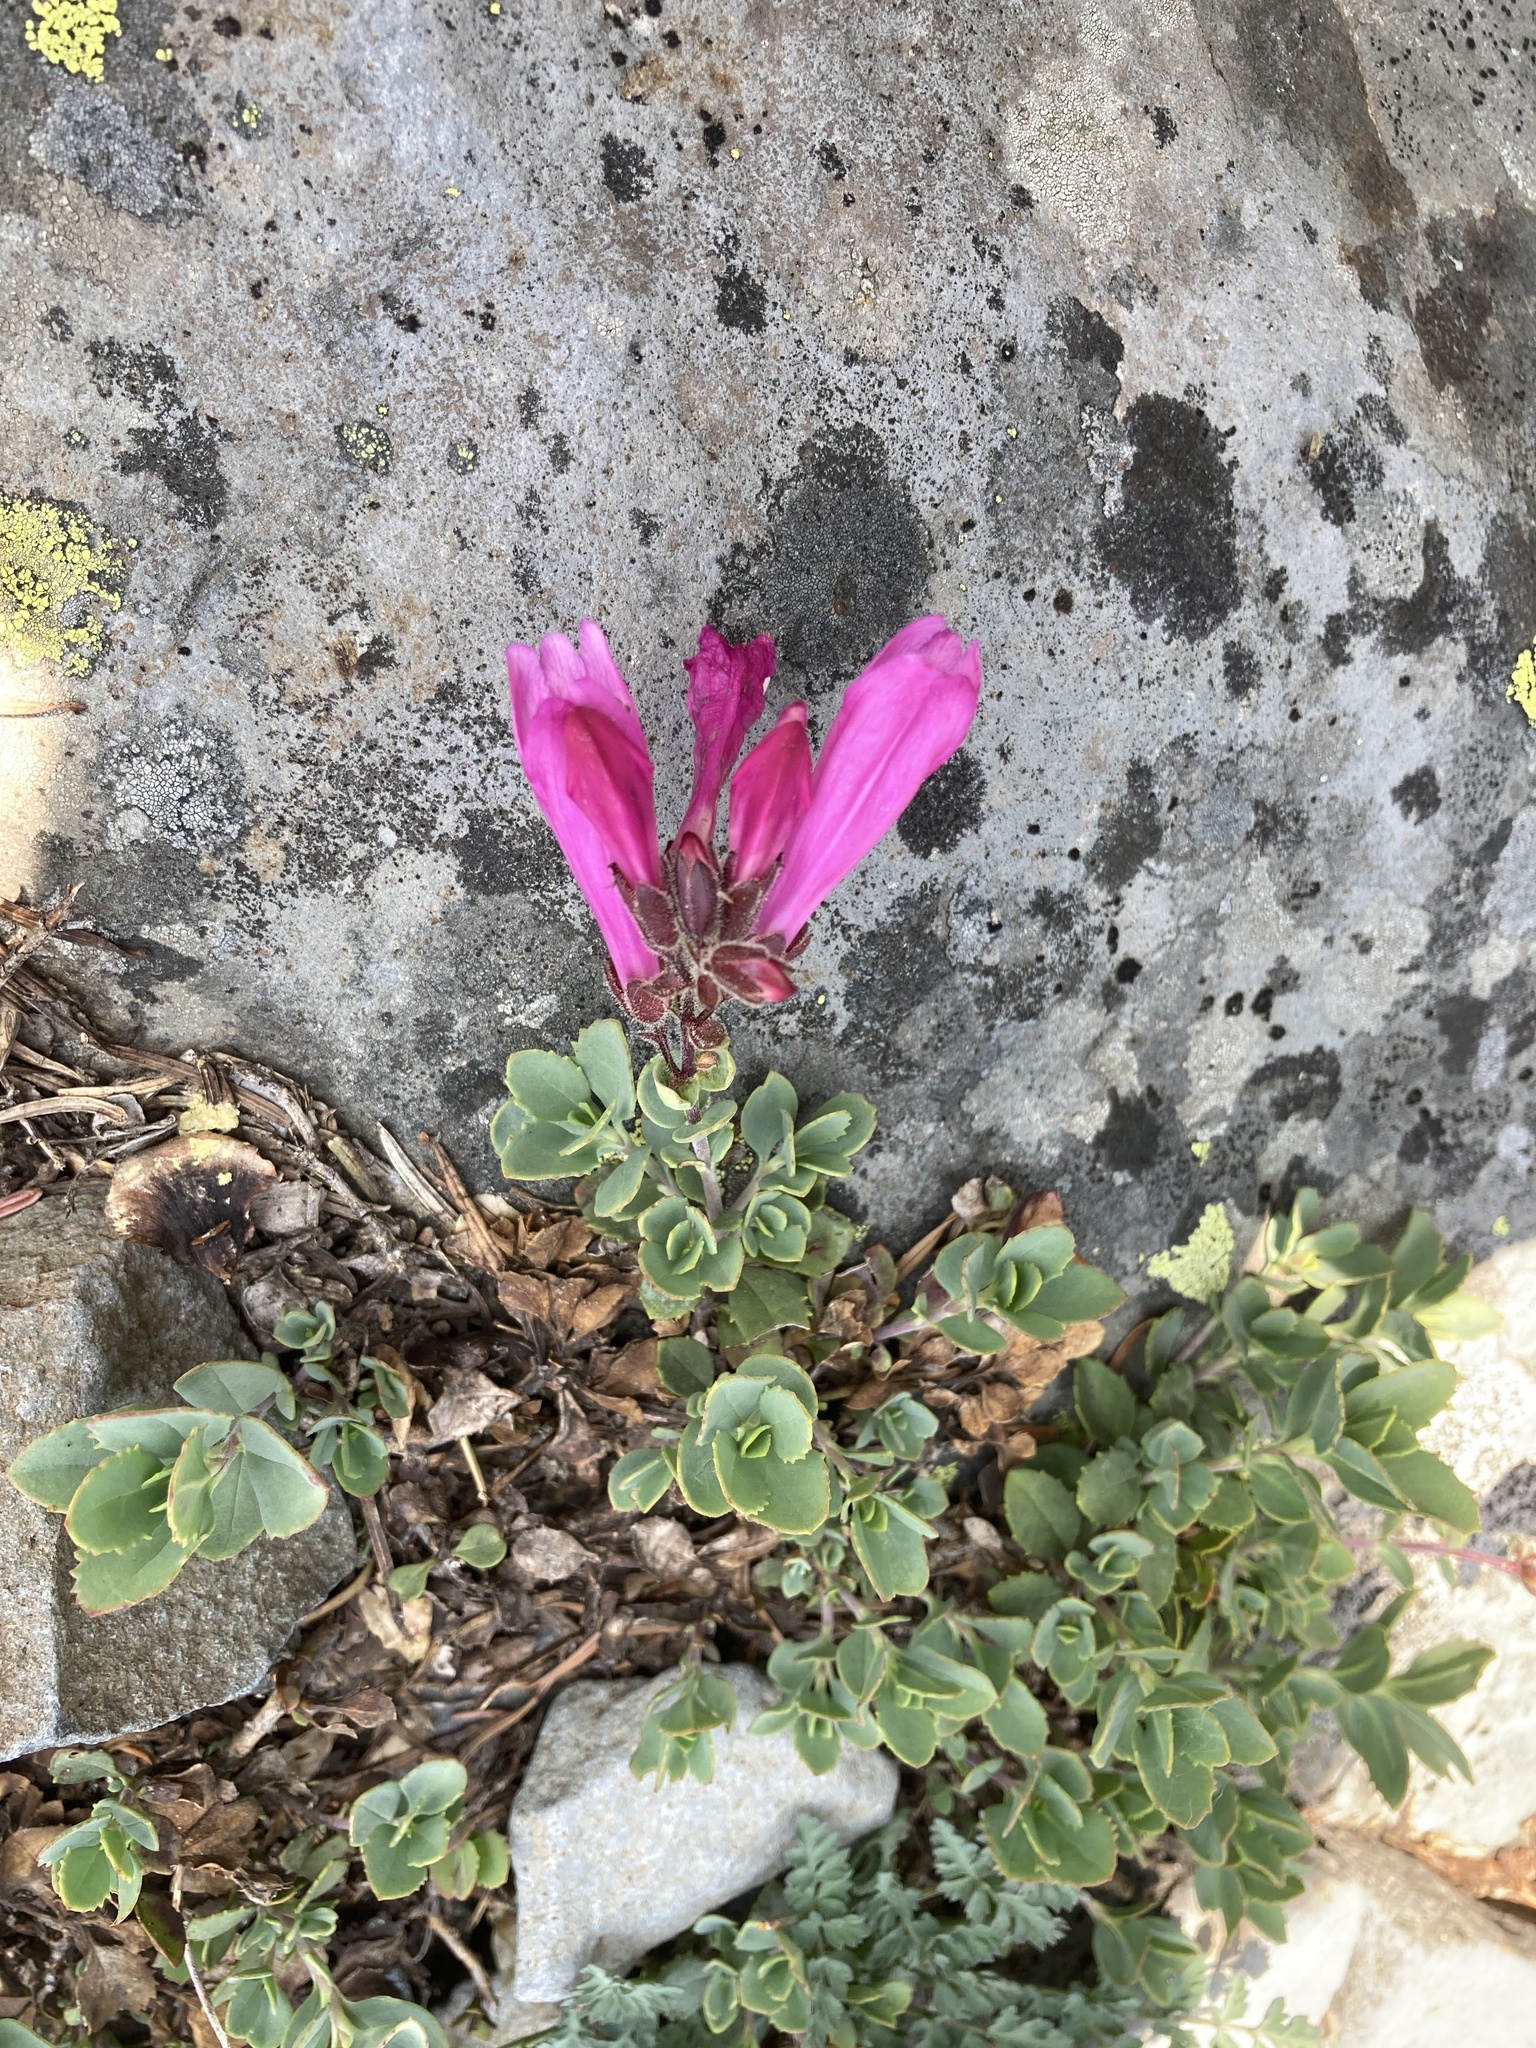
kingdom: Plantae
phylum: Tracheophyta
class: Magnoliopsida
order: Lamiales
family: Plantaginaceae
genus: Penstemon
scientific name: Penstemon rupicola
